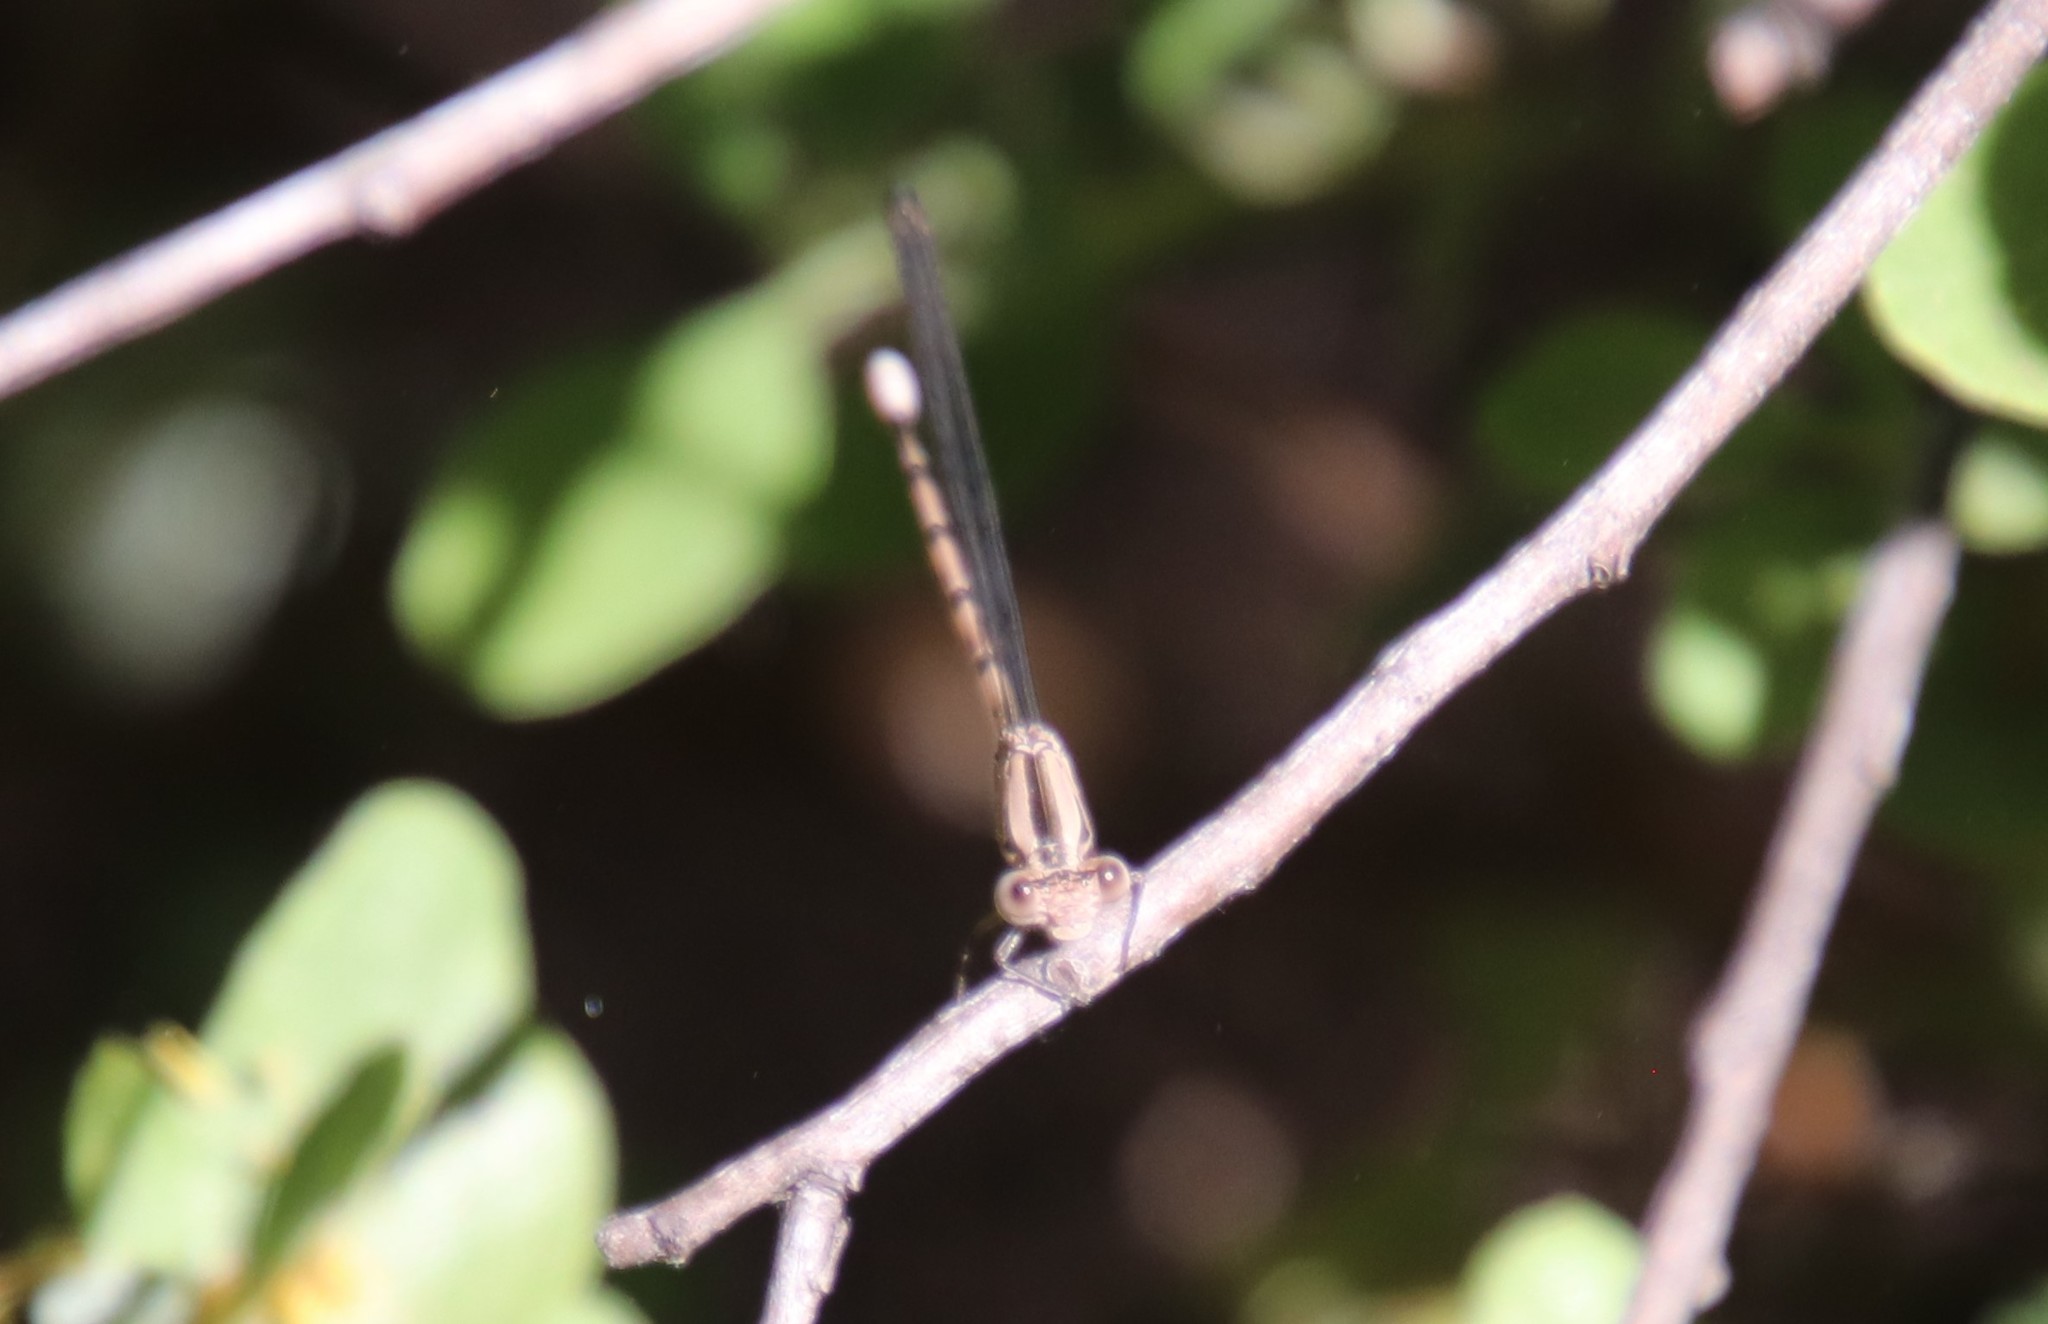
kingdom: Animalia
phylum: Arthropoda
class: Insecta
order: Odonata
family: Coenagrionidae
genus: Argia
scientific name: Argia vivida
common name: Vivid dancer
